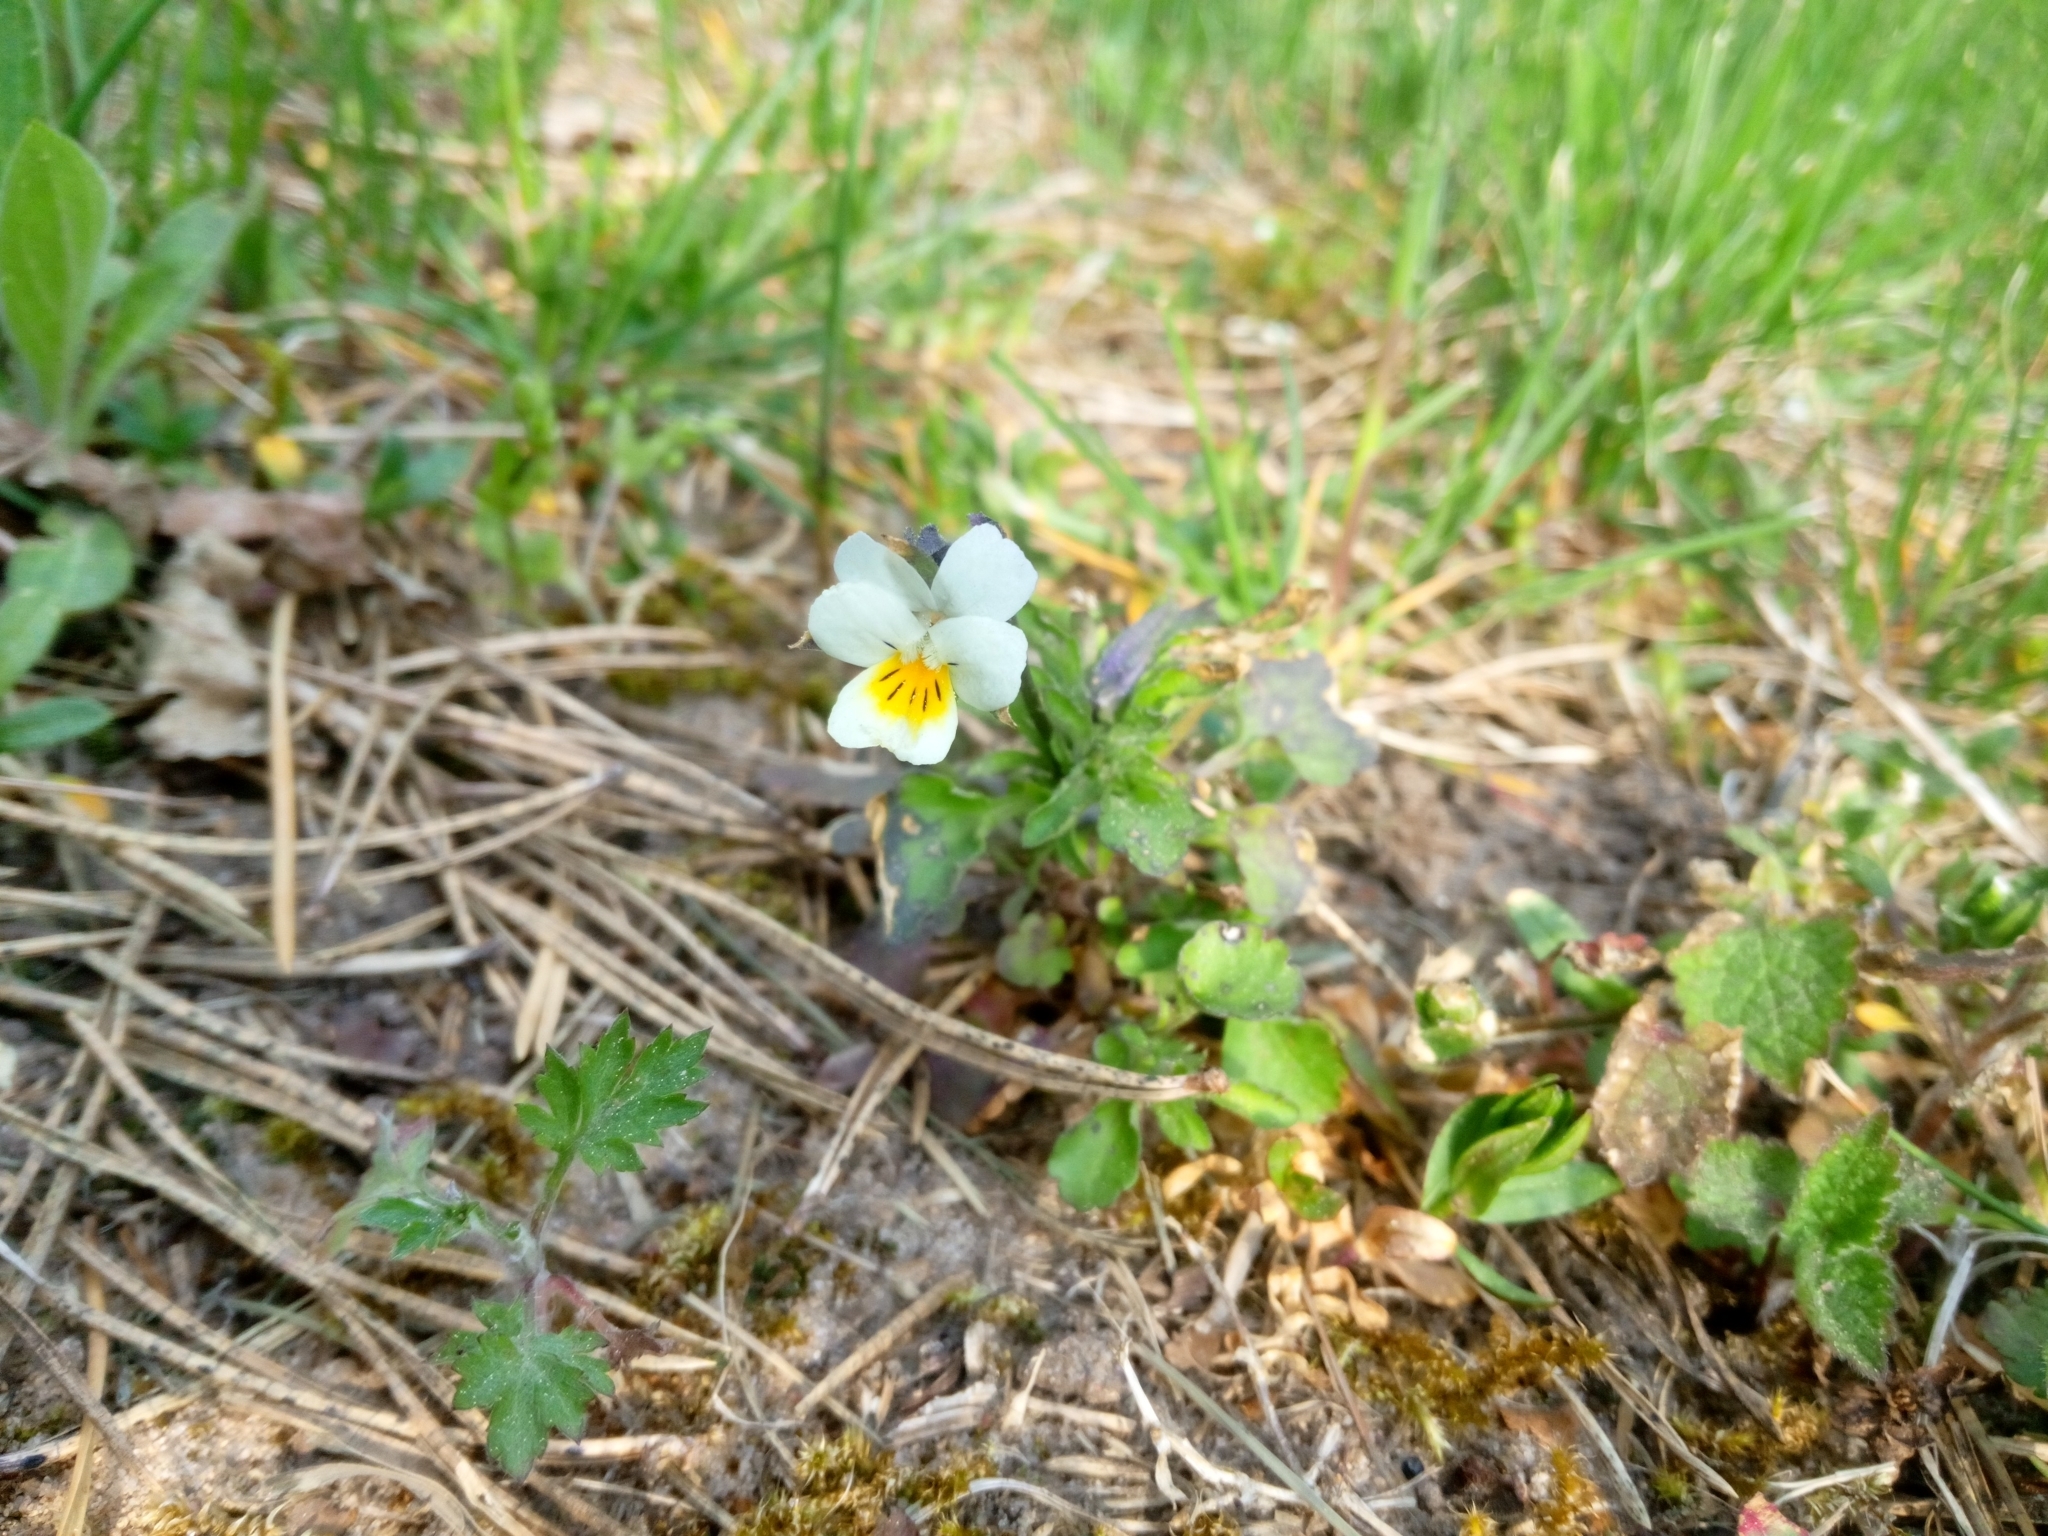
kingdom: Plantae
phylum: Tracheophyta
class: Magnoliopsida
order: Malpighiales
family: Violaceae
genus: Viola
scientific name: Viola arvensis
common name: Field pansy
